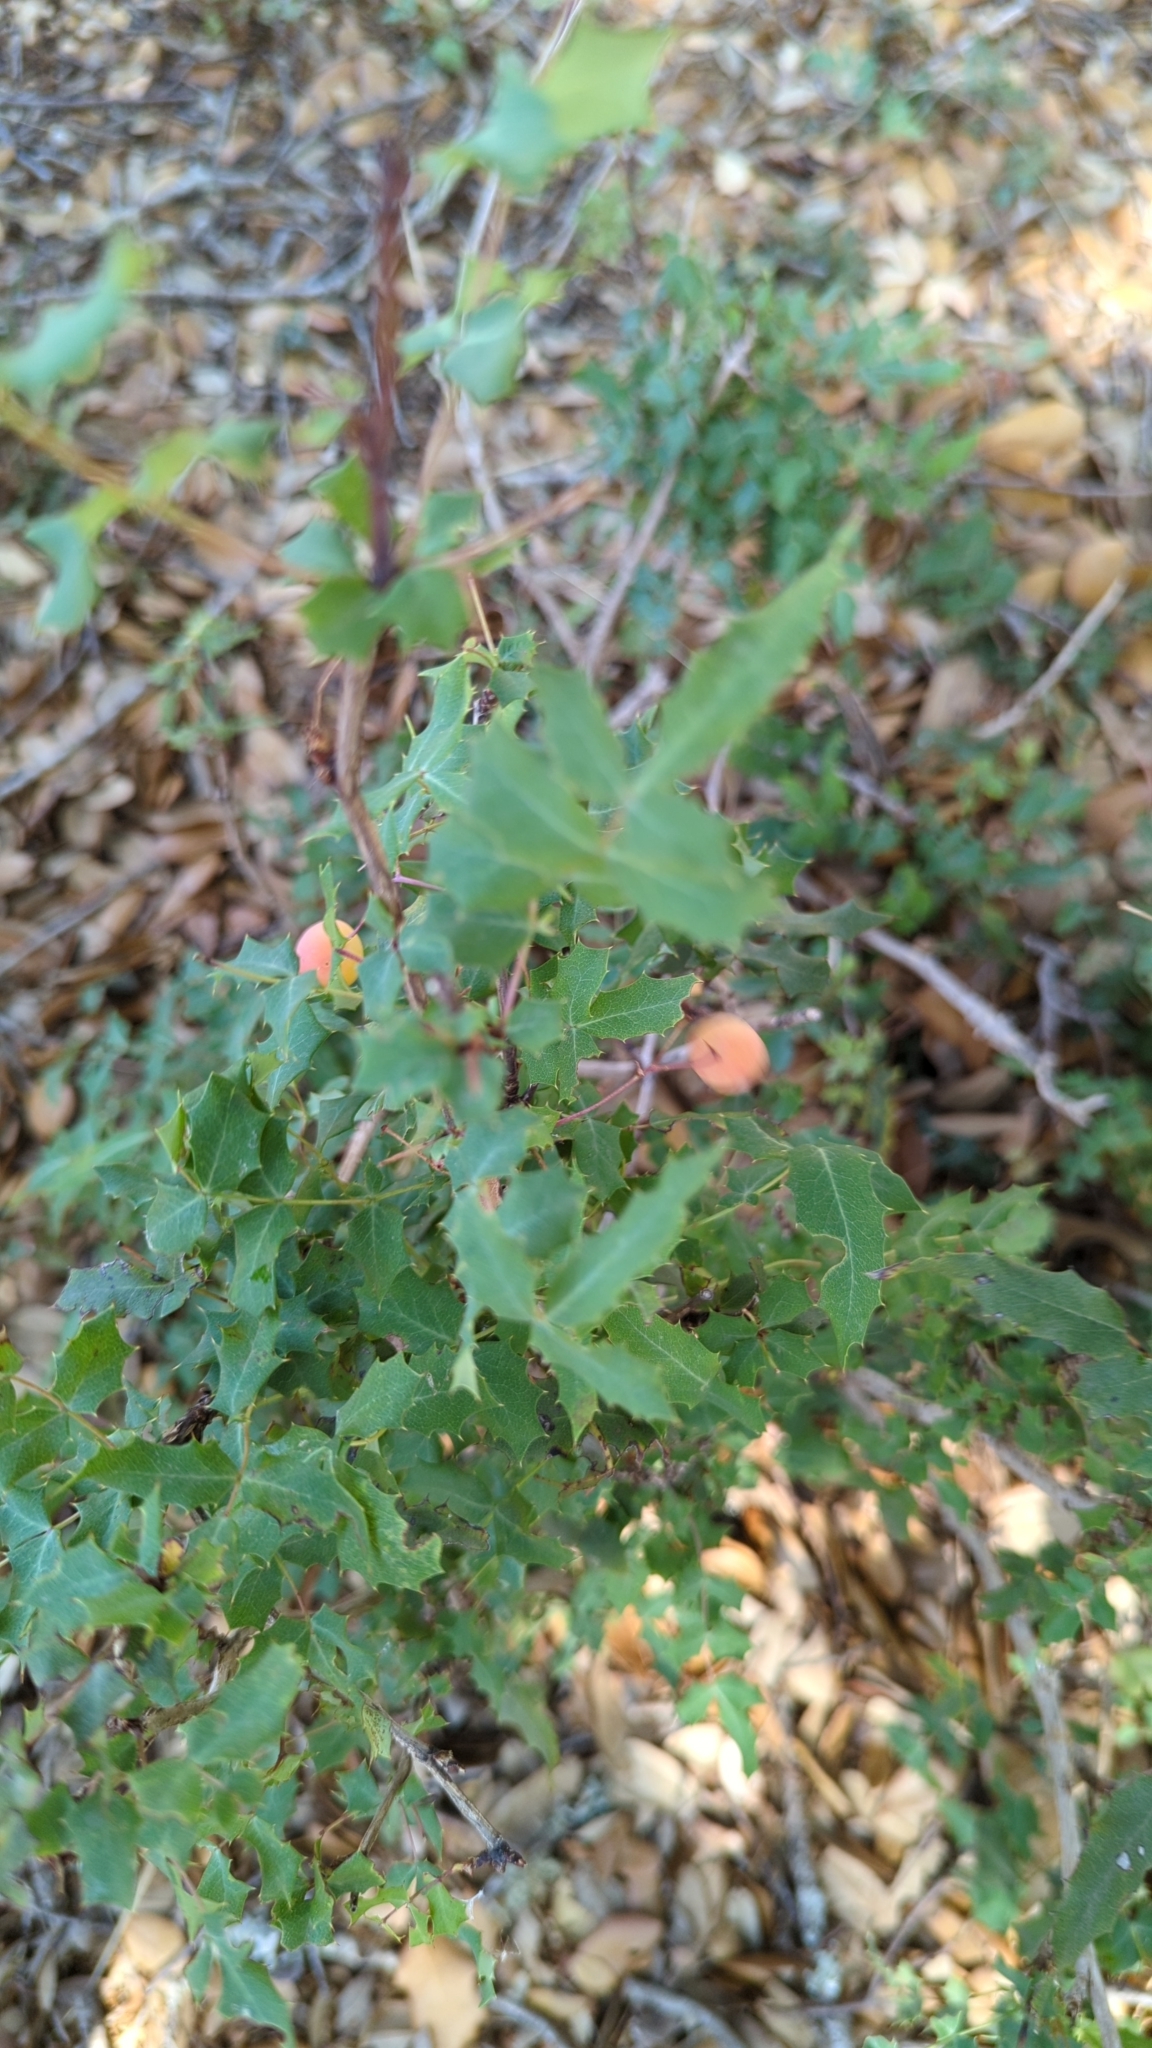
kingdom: Plantae
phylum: Tracheophyta
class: Magnoliopsida
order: Ranunculales
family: Berberidaceae
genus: Berberis
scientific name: Berberis swaseyi
